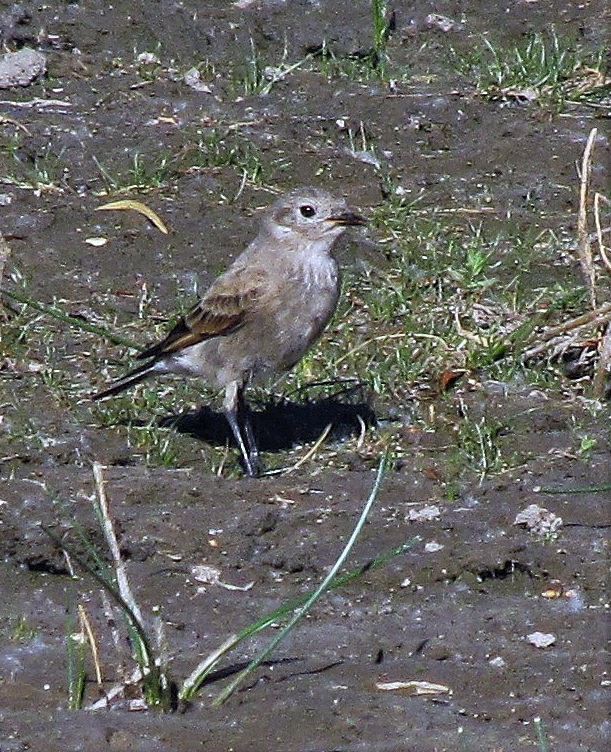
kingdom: Animalia
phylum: Chordata
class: Aves
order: Passeriformes
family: Tyrannidae
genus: Lessonia
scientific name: Lessonia rufa
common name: Austral negrito
